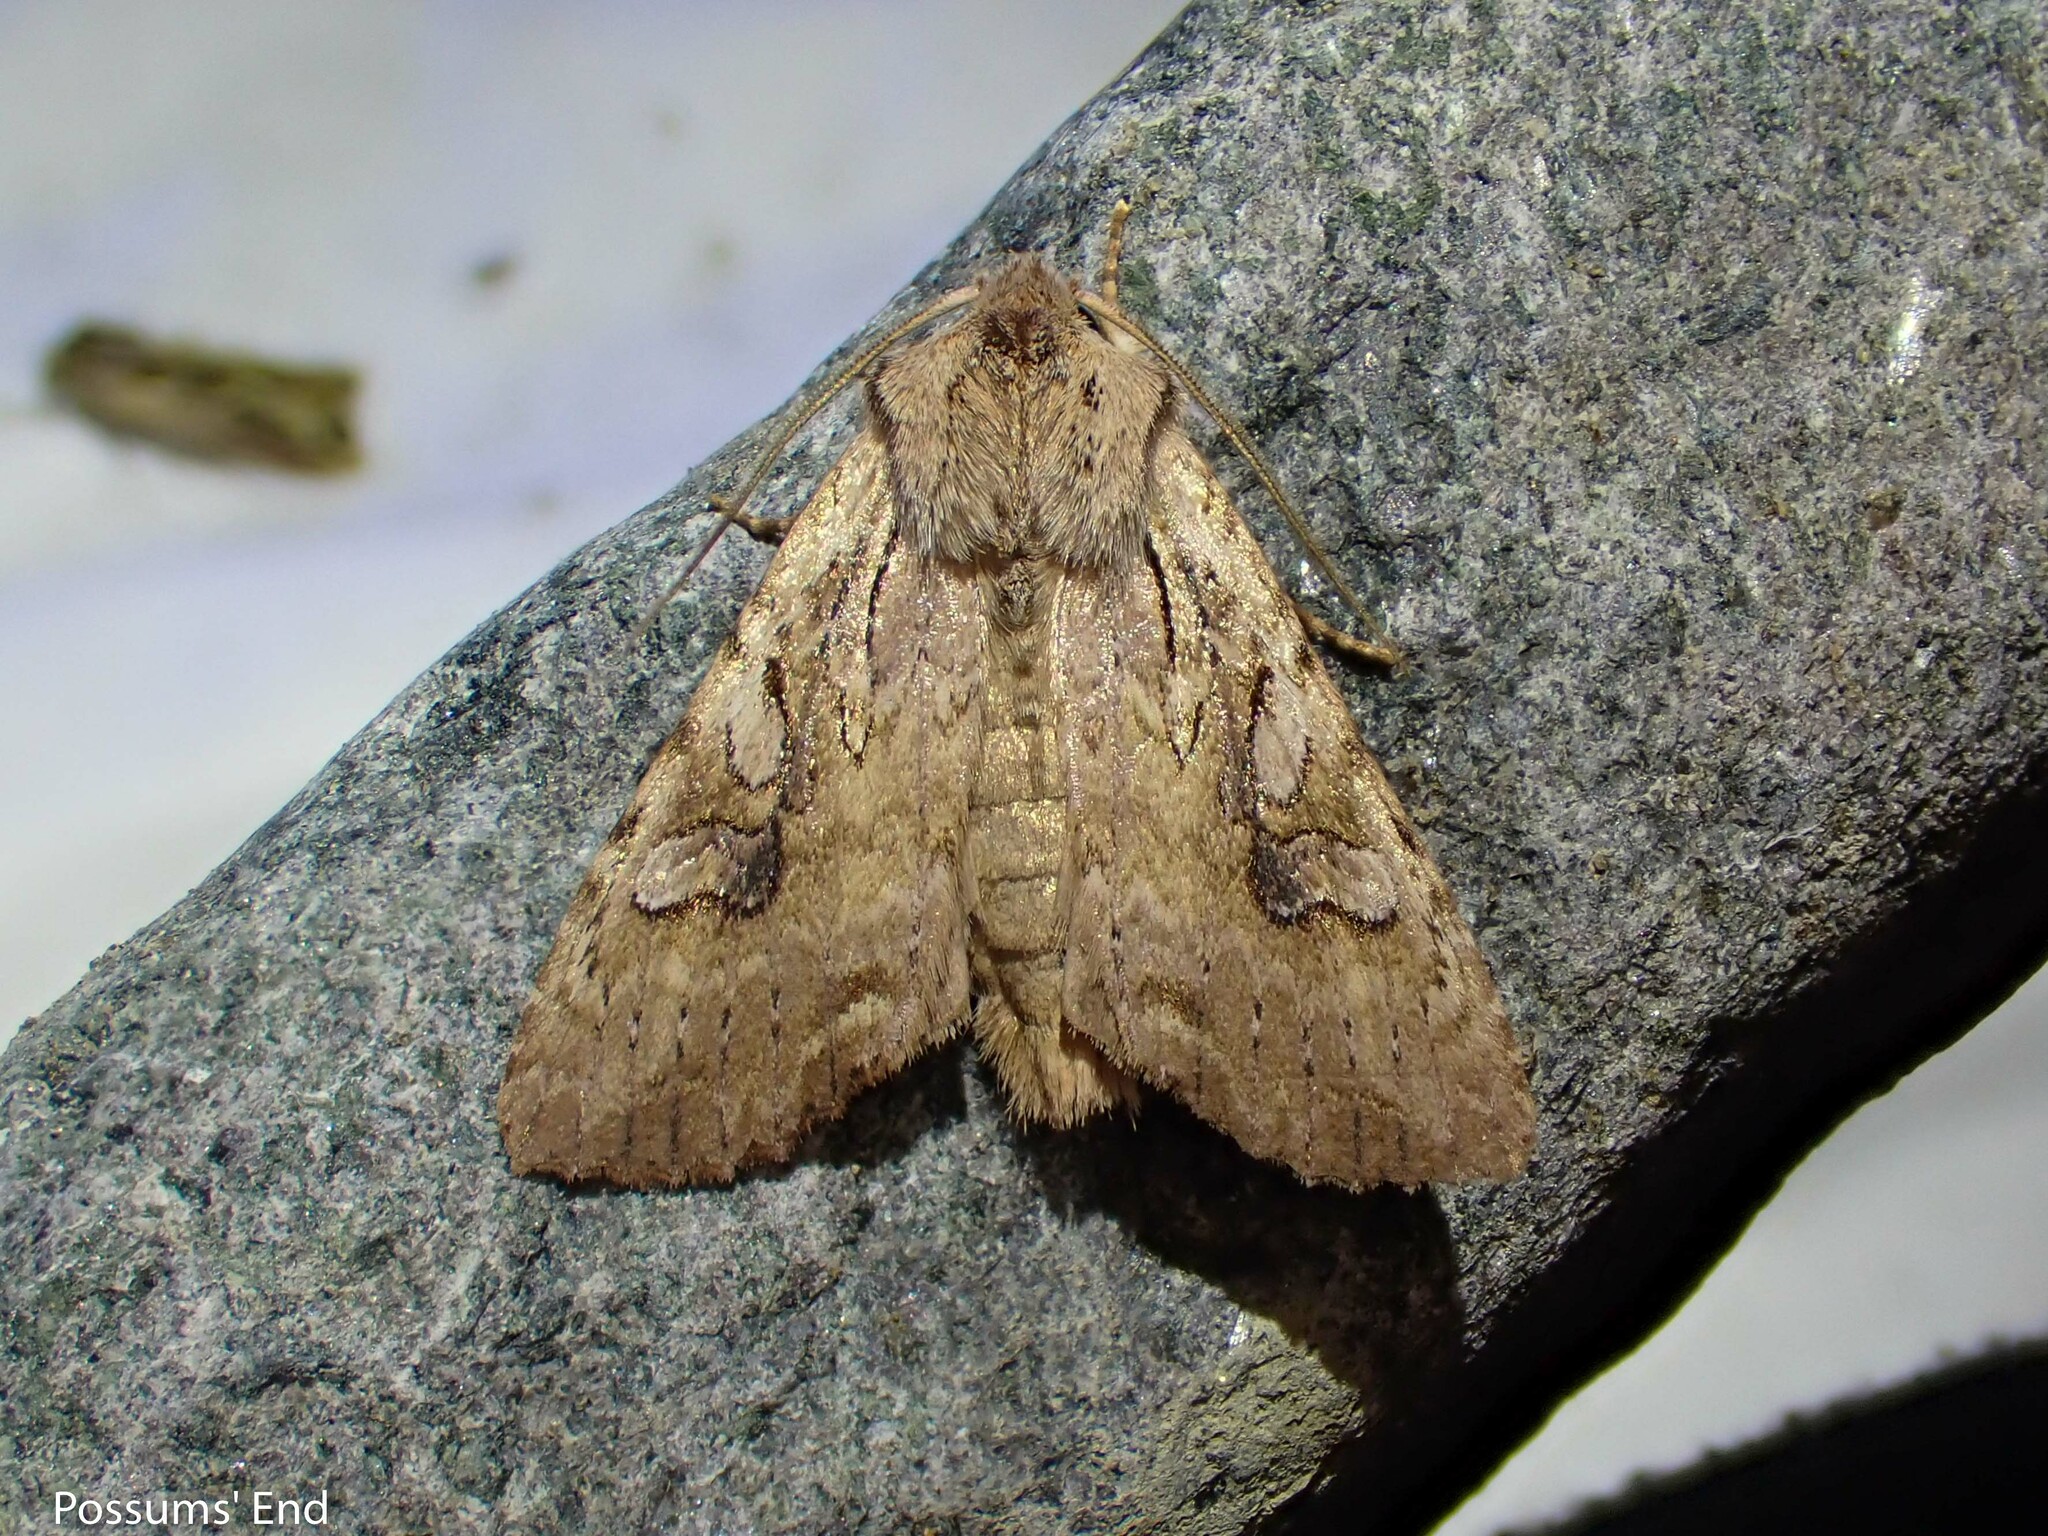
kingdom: Animalia
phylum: Arthropoda
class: Insecta
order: Lepidoptera
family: Noctuidae
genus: Ichneutica
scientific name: Ichneutica lindsayorum
